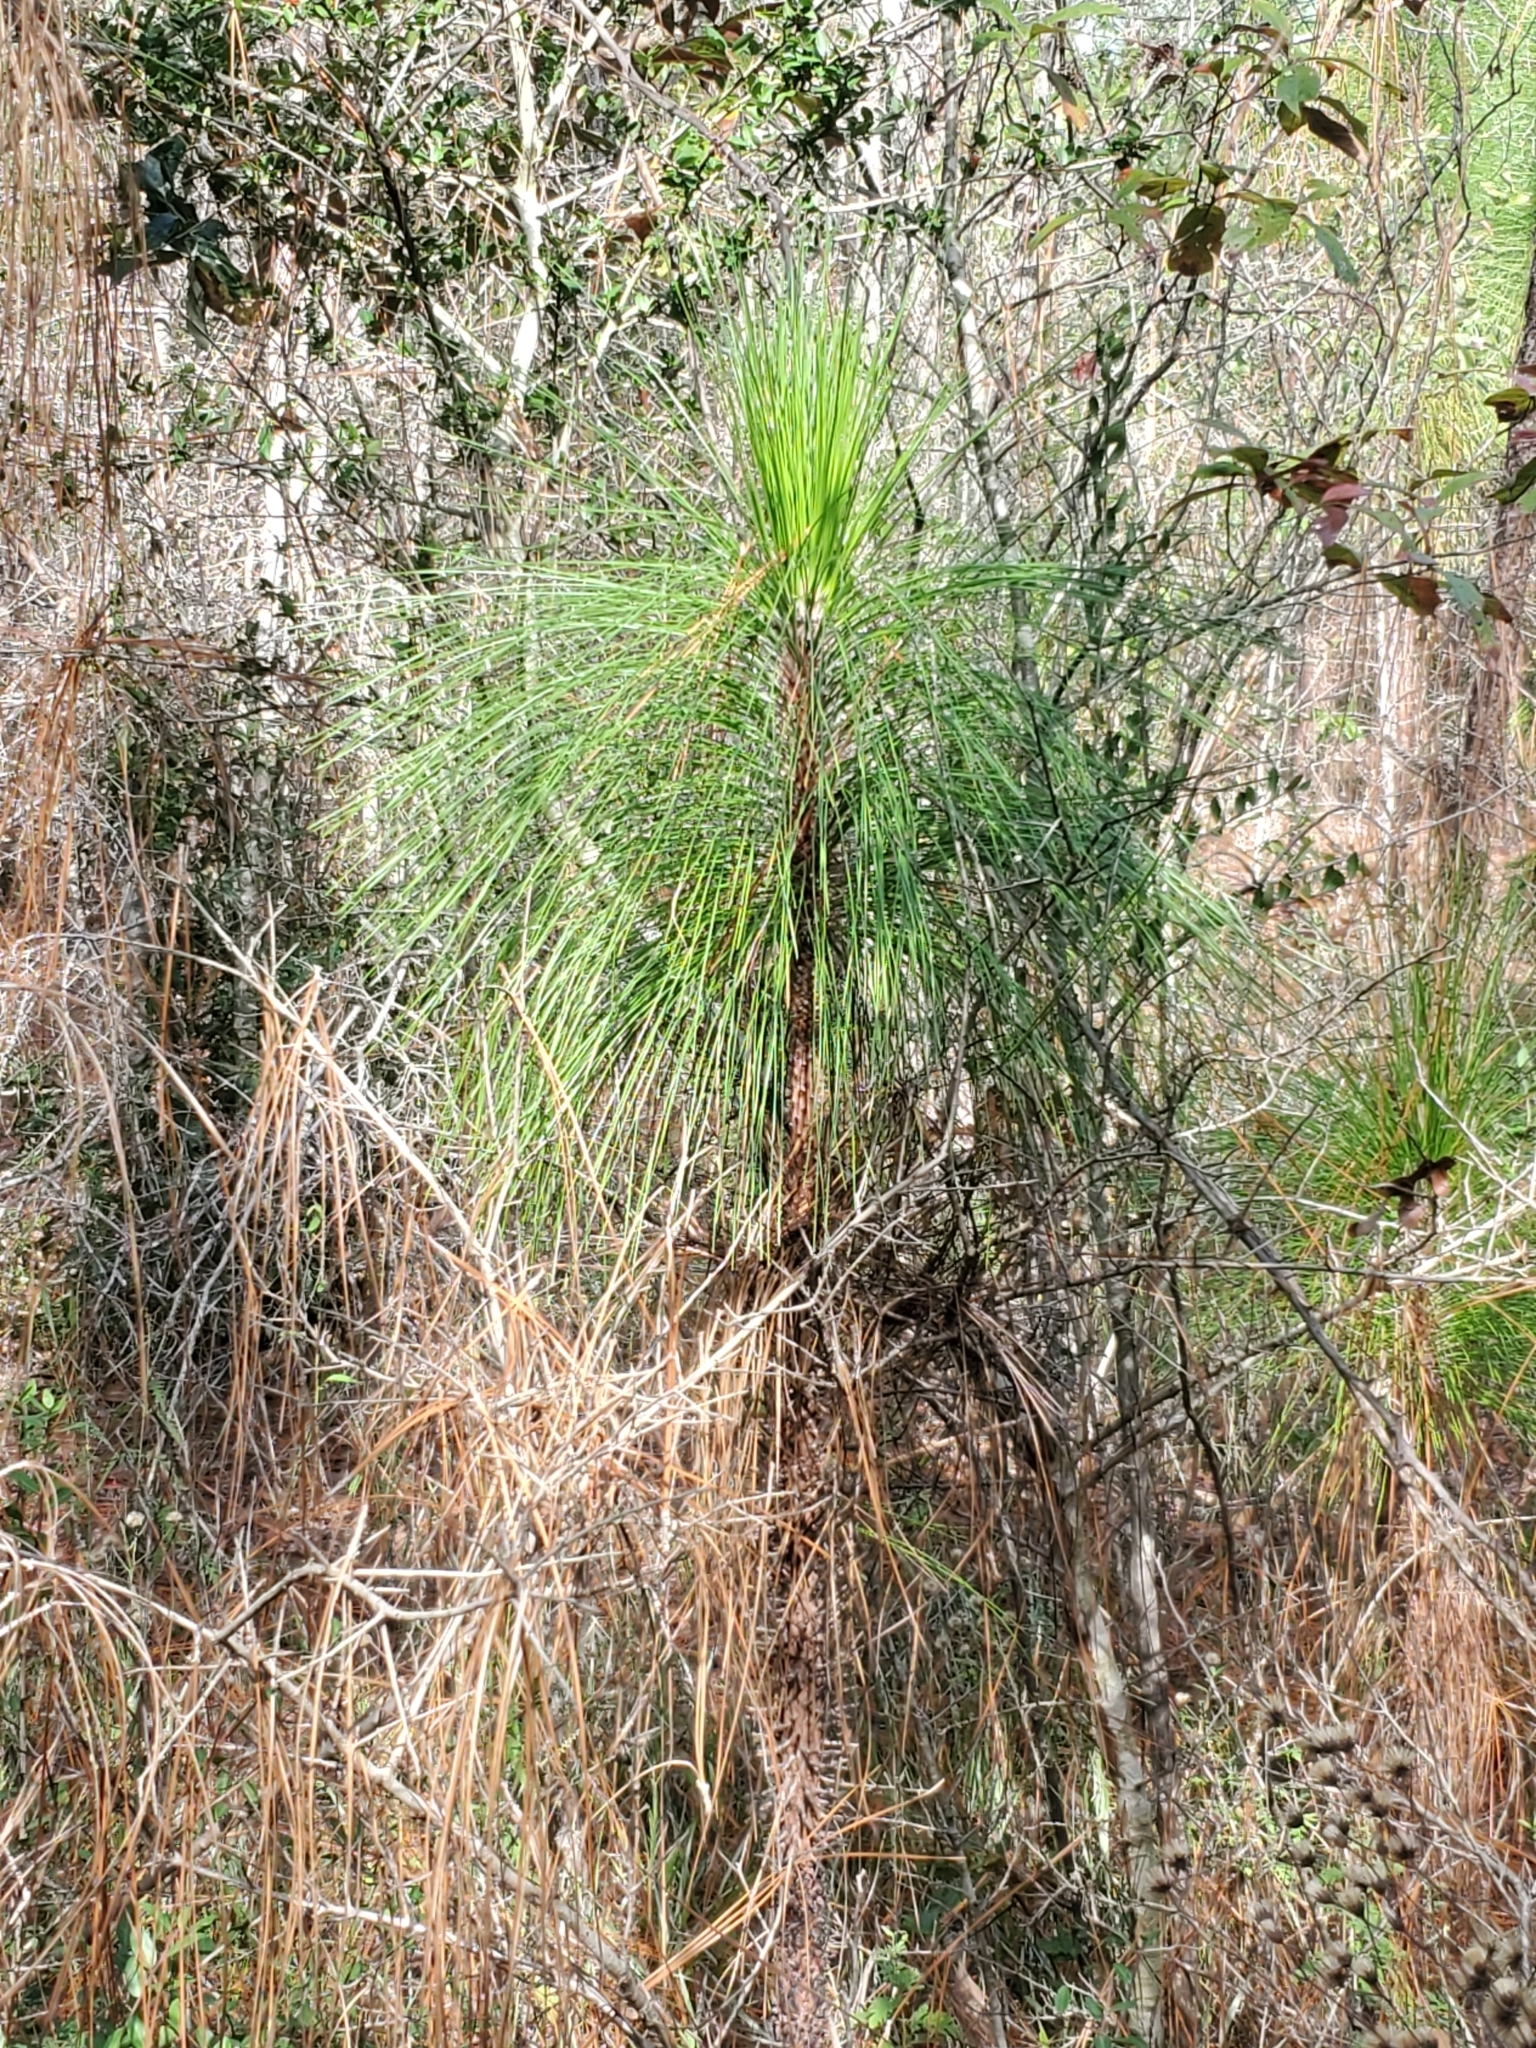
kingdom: Plantae
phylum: Tracheophyta
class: Pinopsida
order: Pinales
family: Pinaceae
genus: Pinus
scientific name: Pinus palustris
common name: Longleaf pine
